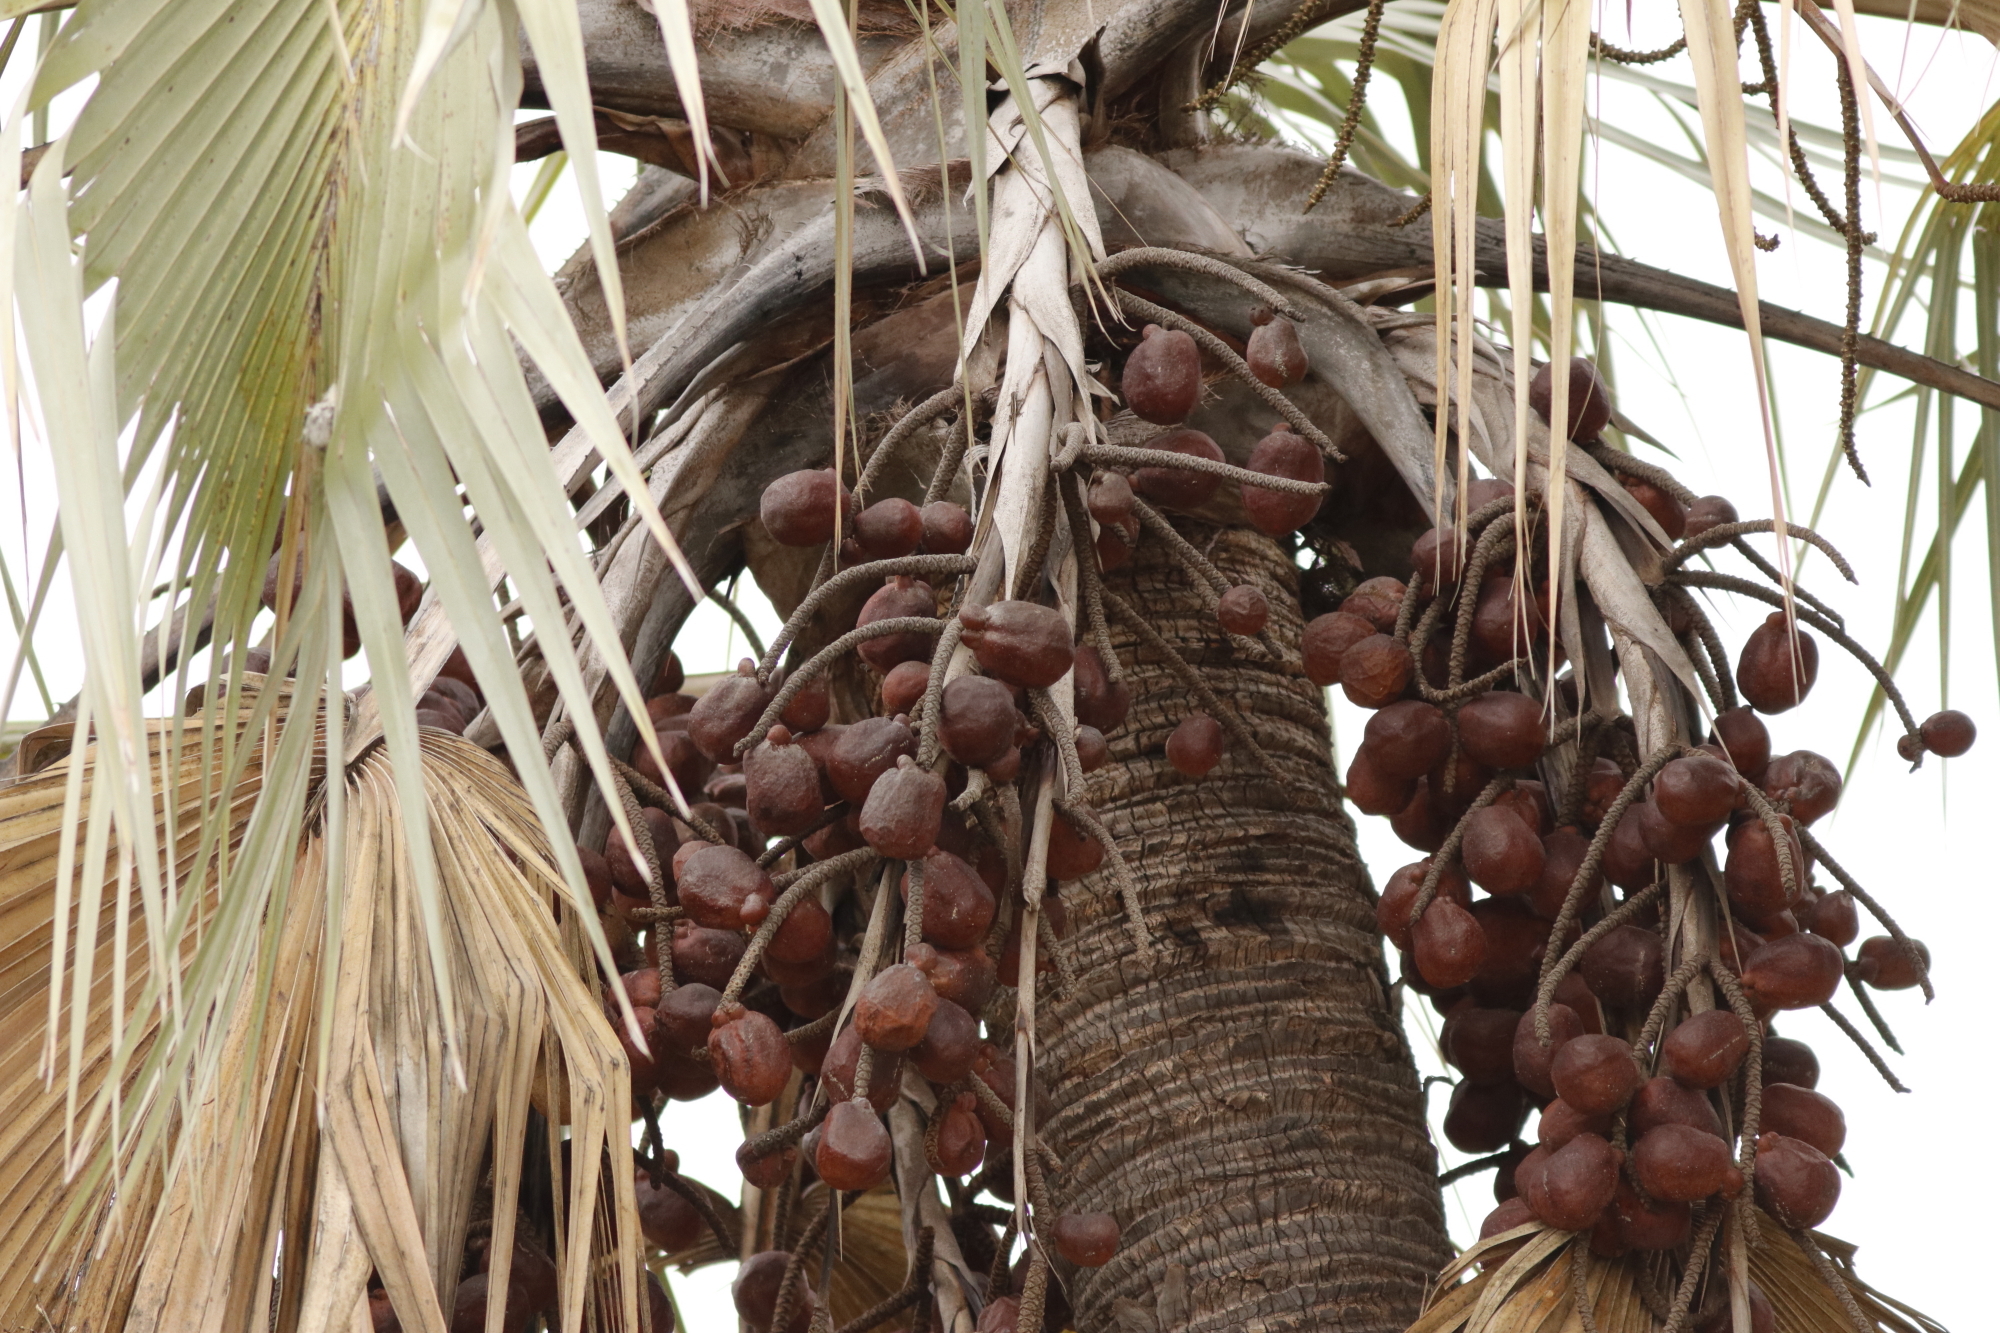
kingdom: Plantae
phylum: Tracheophyta
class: Liliopsida
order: Arecales
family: Arecaceae
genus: Hyphaene
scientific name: Hyphaene petersiana
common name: African ivory nut palm
